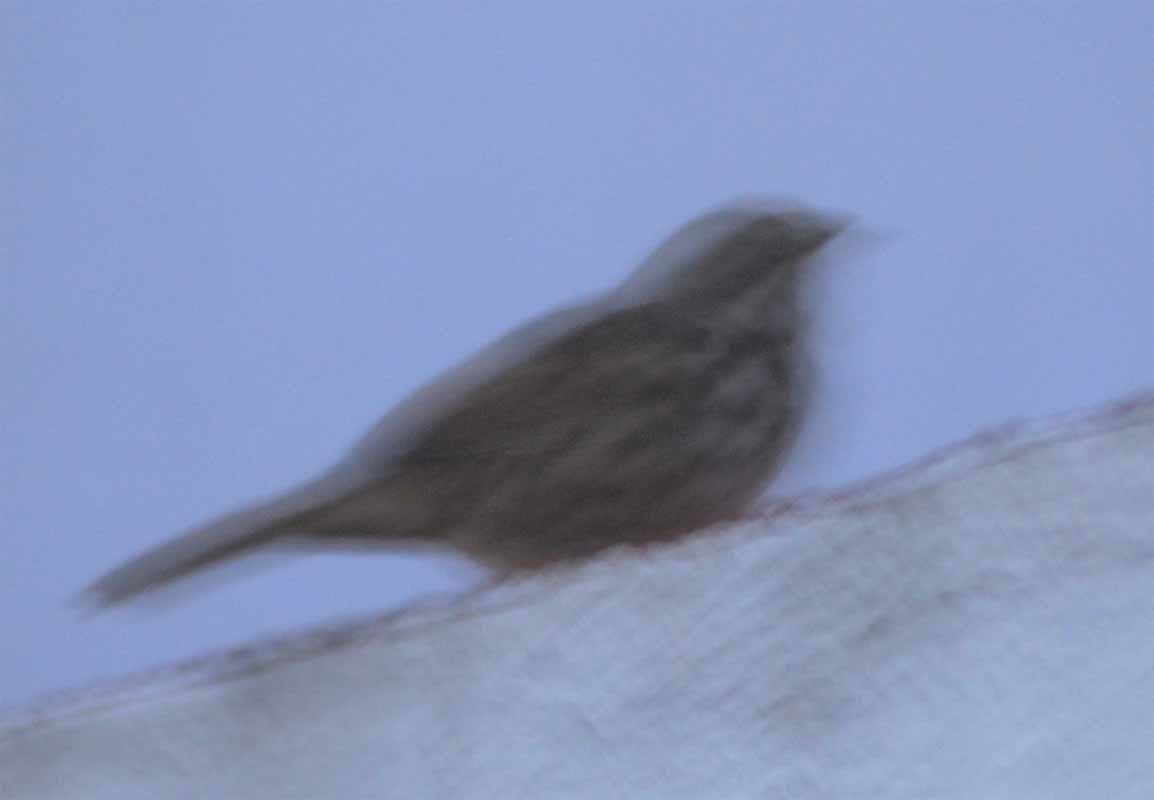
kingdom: Animalia
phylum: Chordata
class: Aves
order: Passeriformes
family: Passerellidae
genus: Melospiza
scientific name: Melospiza melodia
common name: Song sparrow
